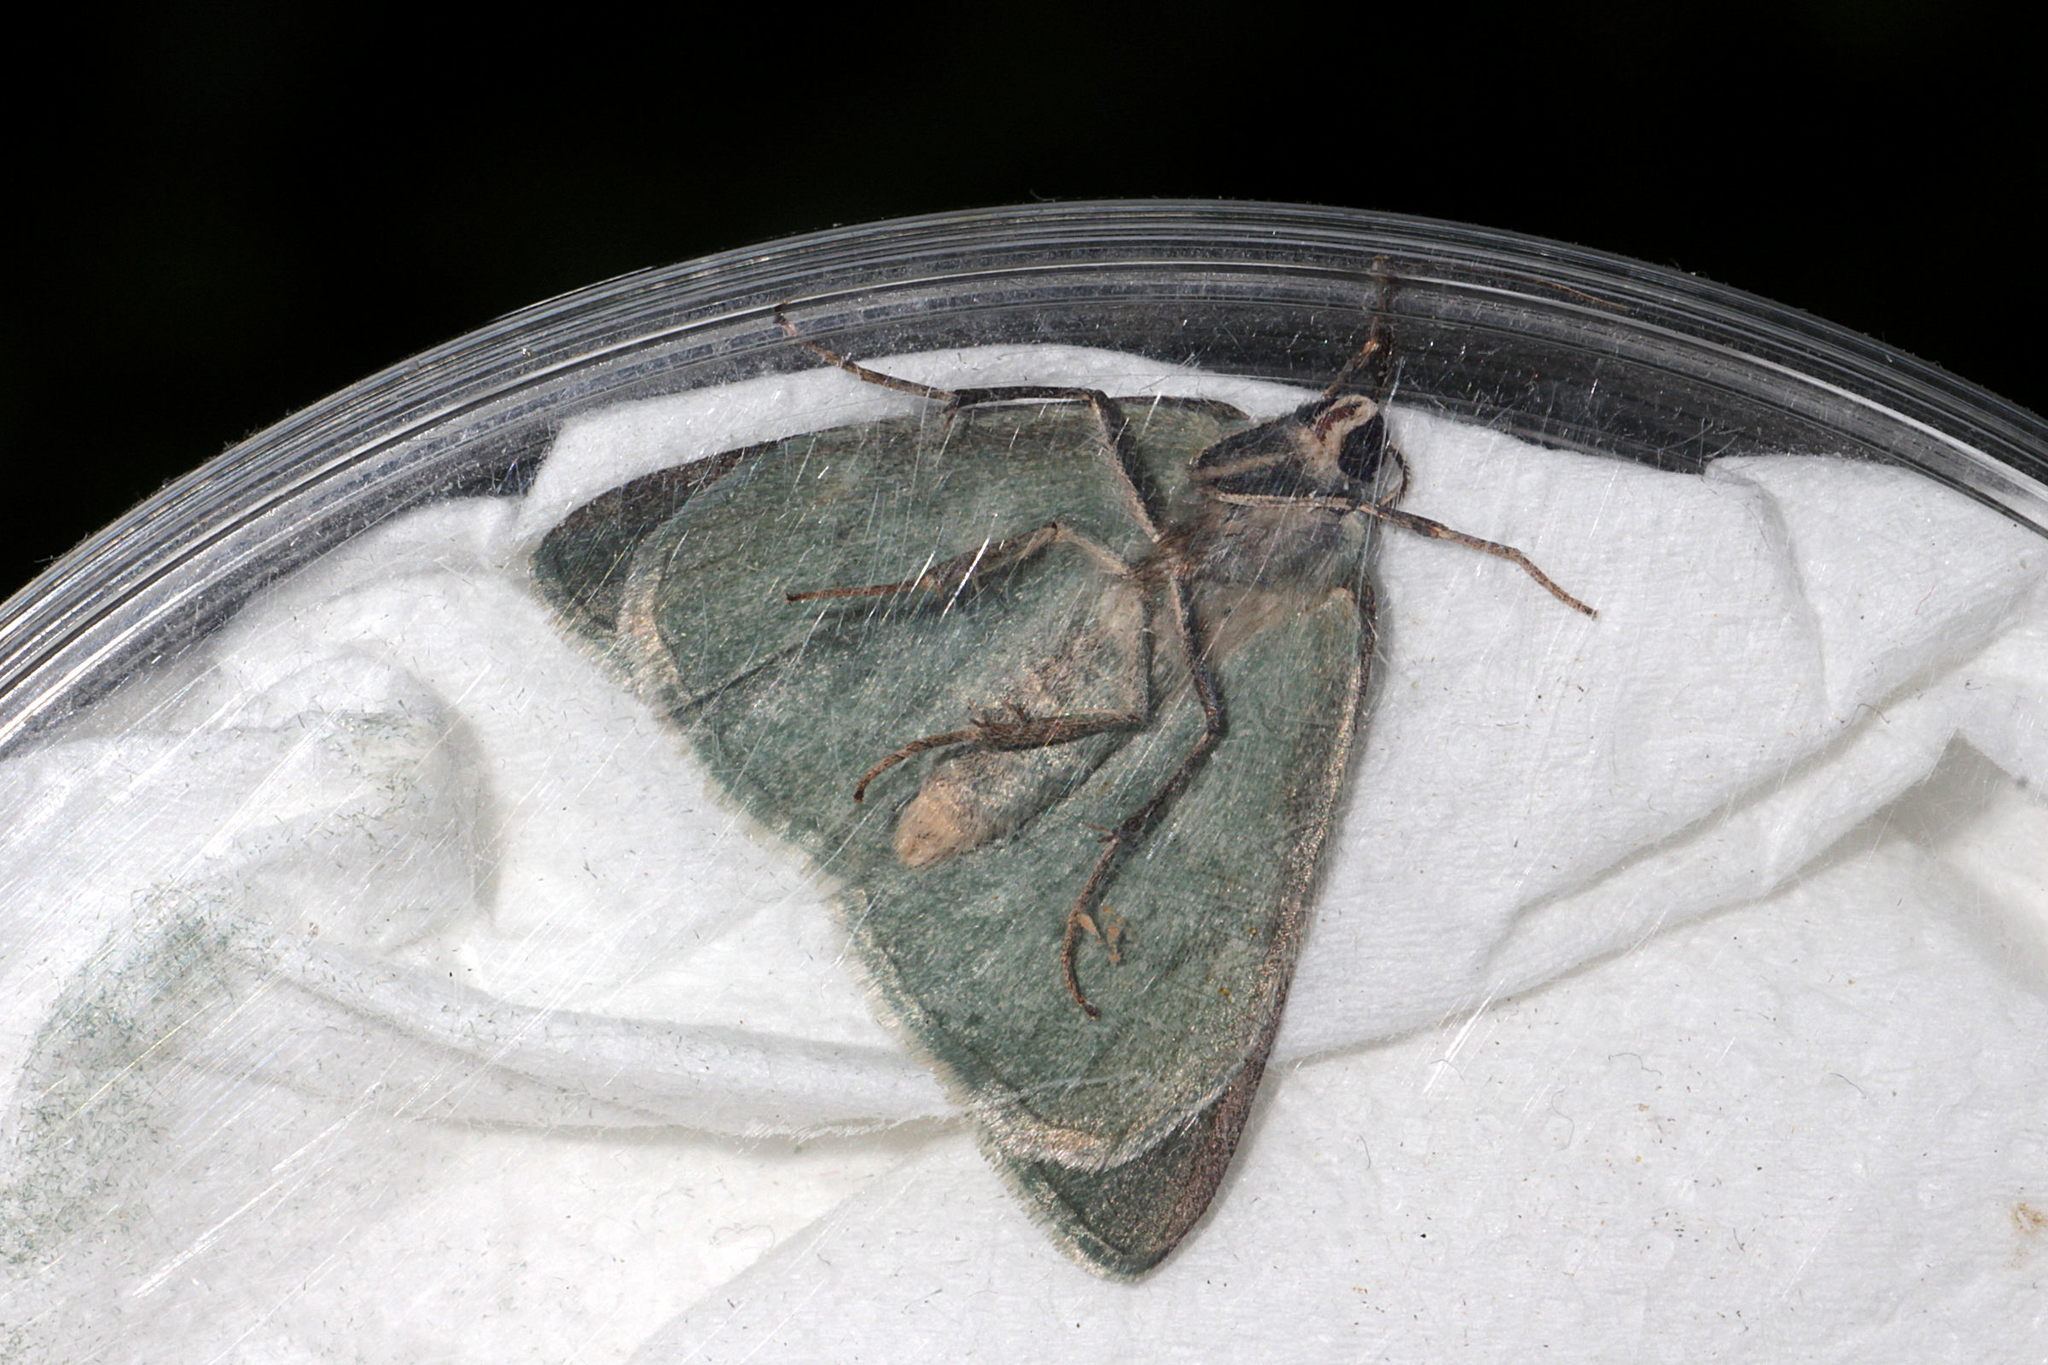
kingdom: Animalia
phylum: Arthropoda
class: Insecta
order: Lepidoptera
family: Geometridae
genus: Pseudoterpna
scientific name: Pseudoterpna pruinata
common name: Grass emerald
